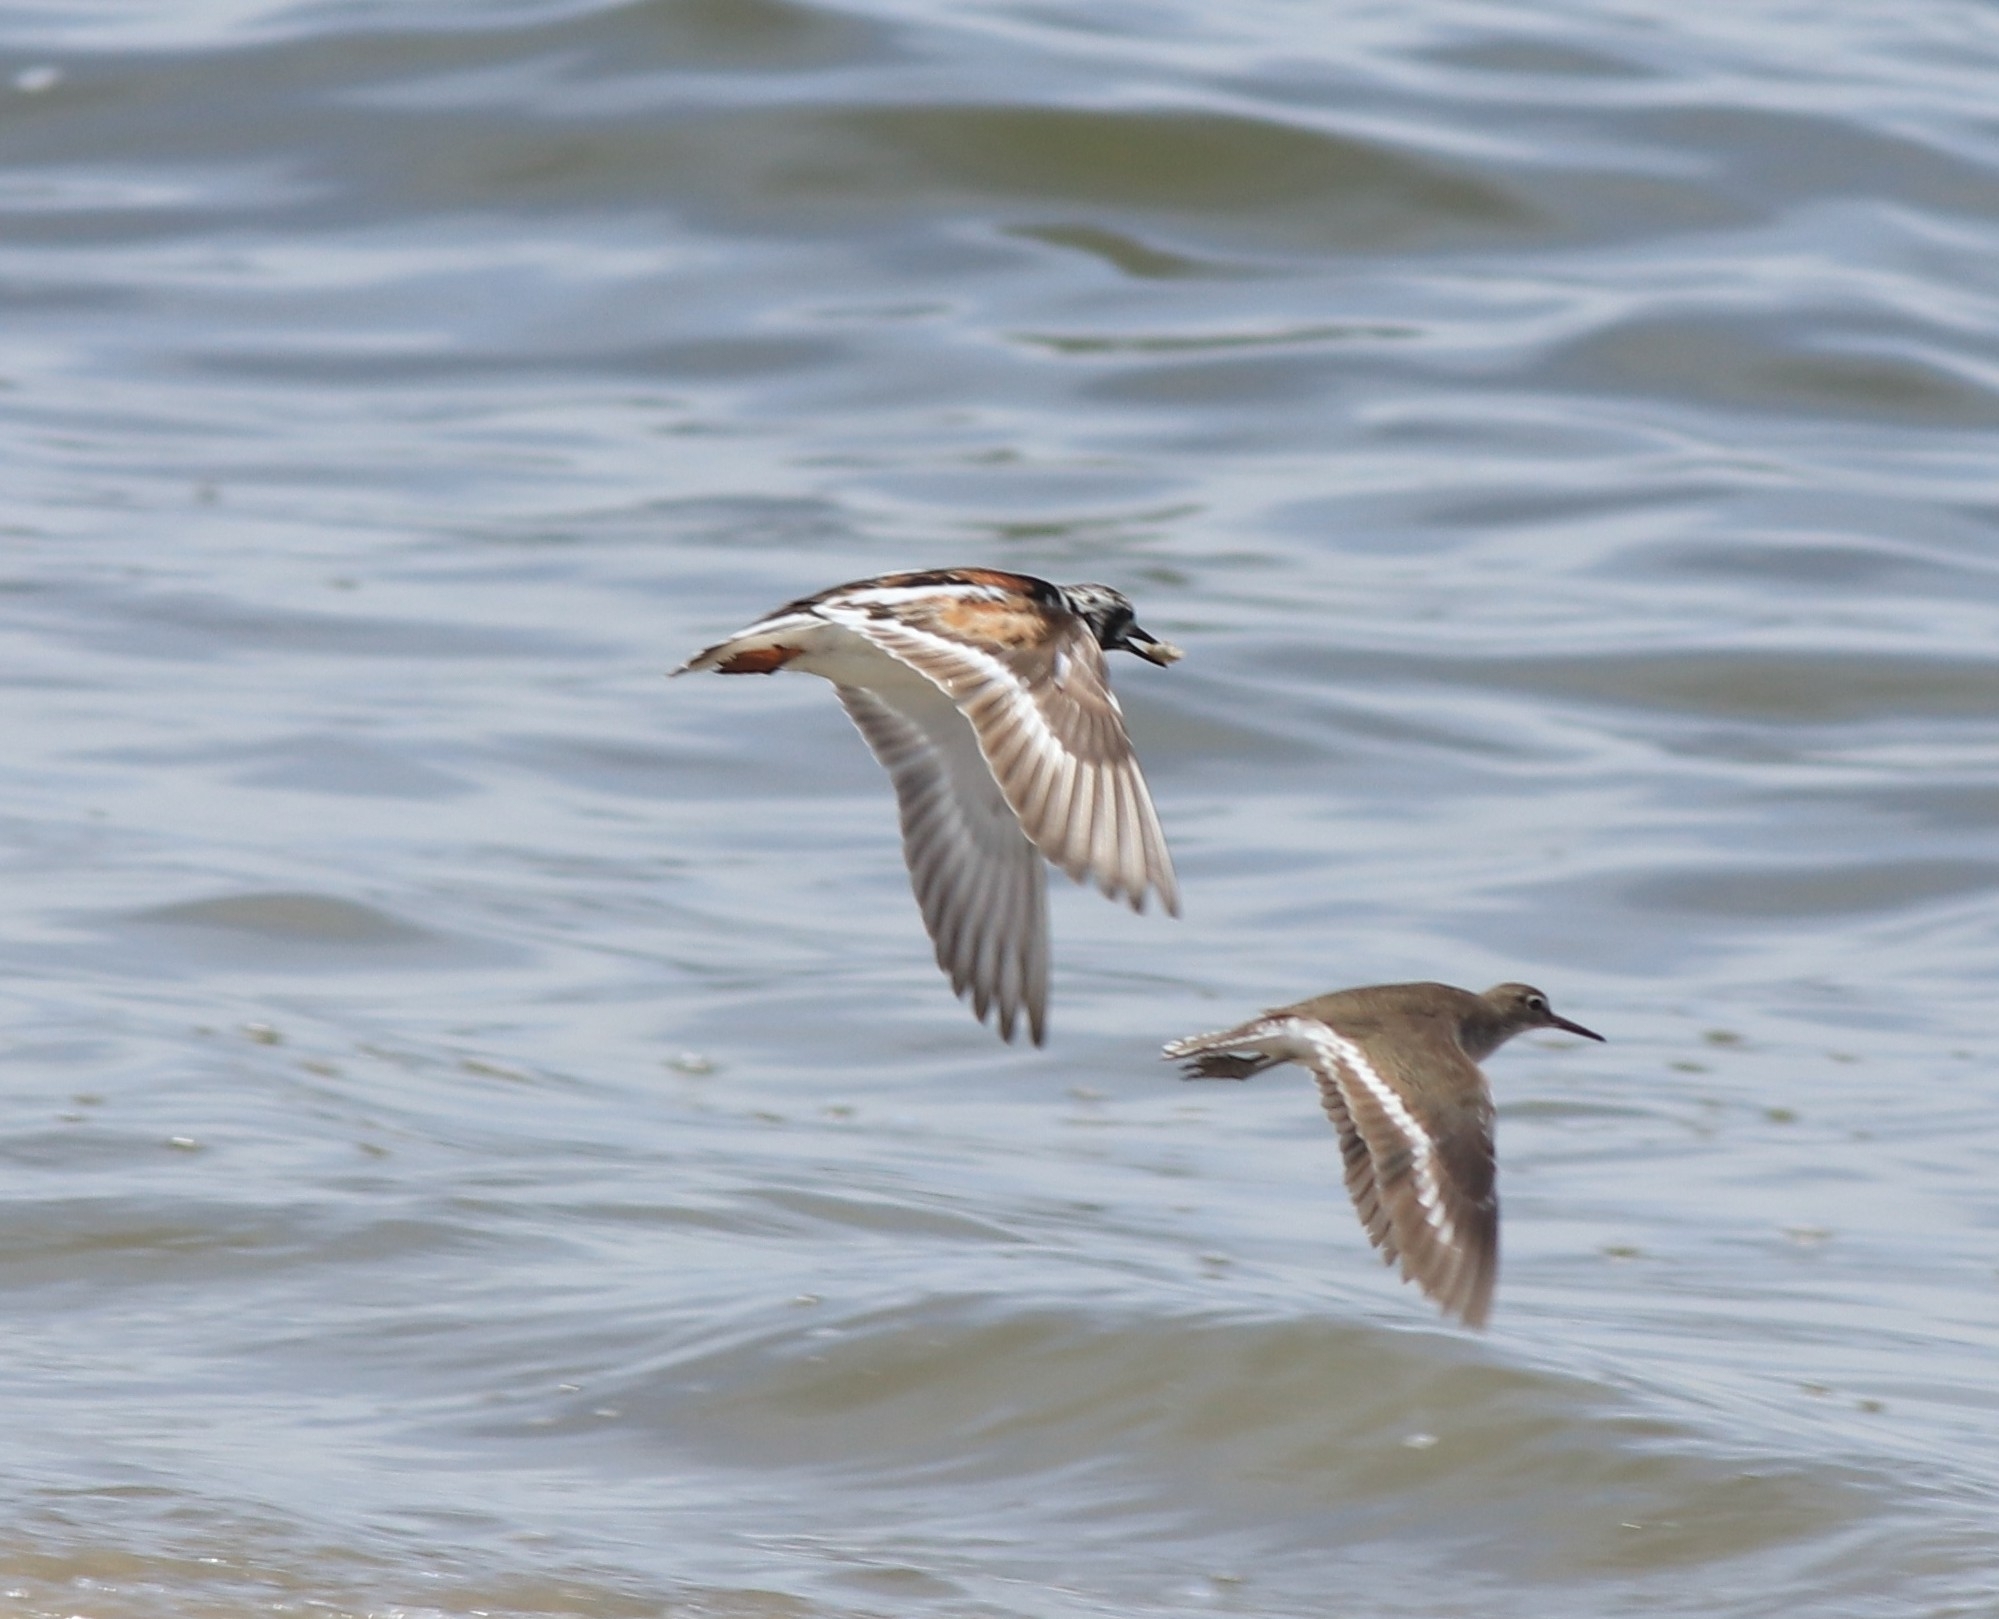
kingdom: Animalia
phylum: Chordata
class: Aves
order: Charadriiformes
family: Scolopacidae
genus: Arenaria
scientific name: Arenaria interpres
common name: Ruddy turnstone
